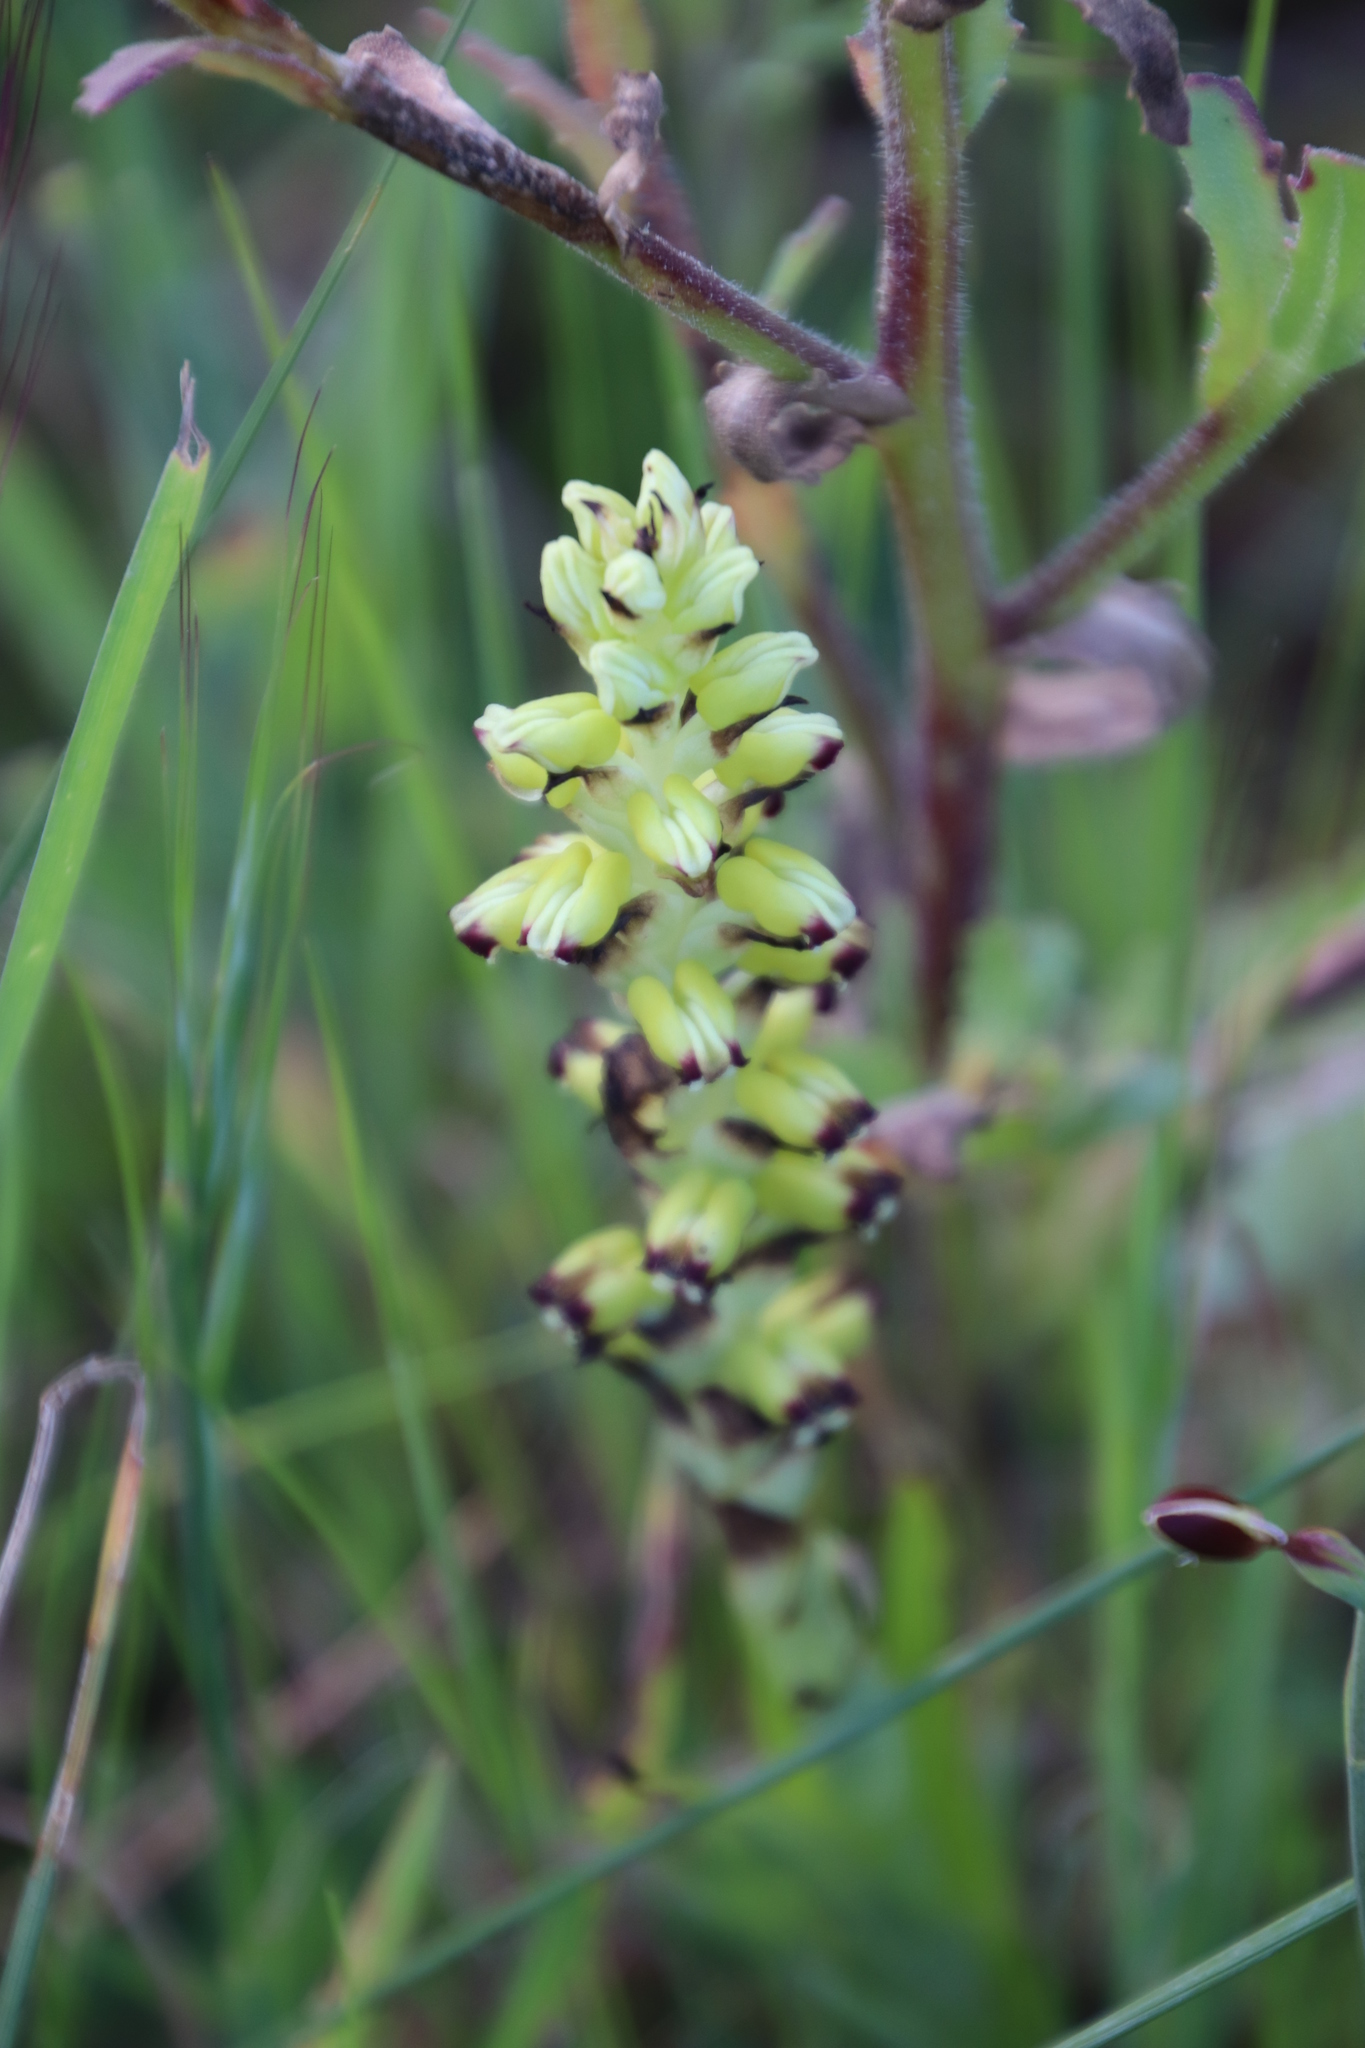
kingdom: Plantae
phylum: Tracheophyta
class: Liliopsida
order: Asparagales
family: Orchidaceae
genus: Corycium
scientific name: Corycium orobanchoides
